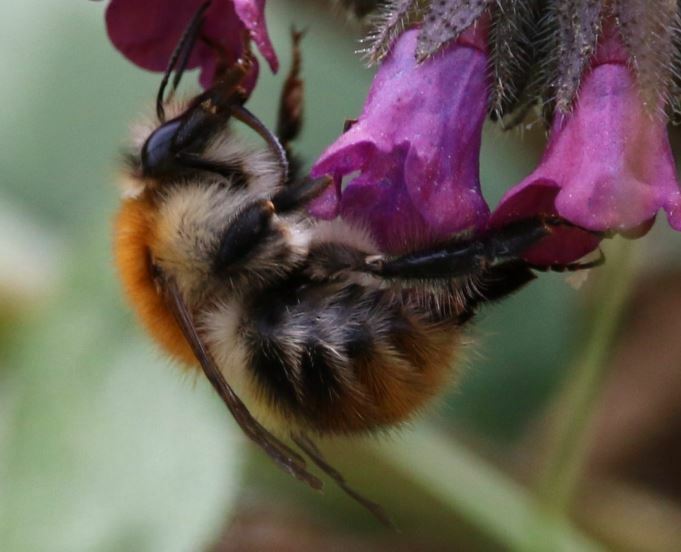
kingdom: Animalia
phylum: Arthropoda
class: Insecta
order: Hymenoptera
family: Apidae
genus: Bombus
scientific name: Bombus pascuorum
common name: Common carder bee
